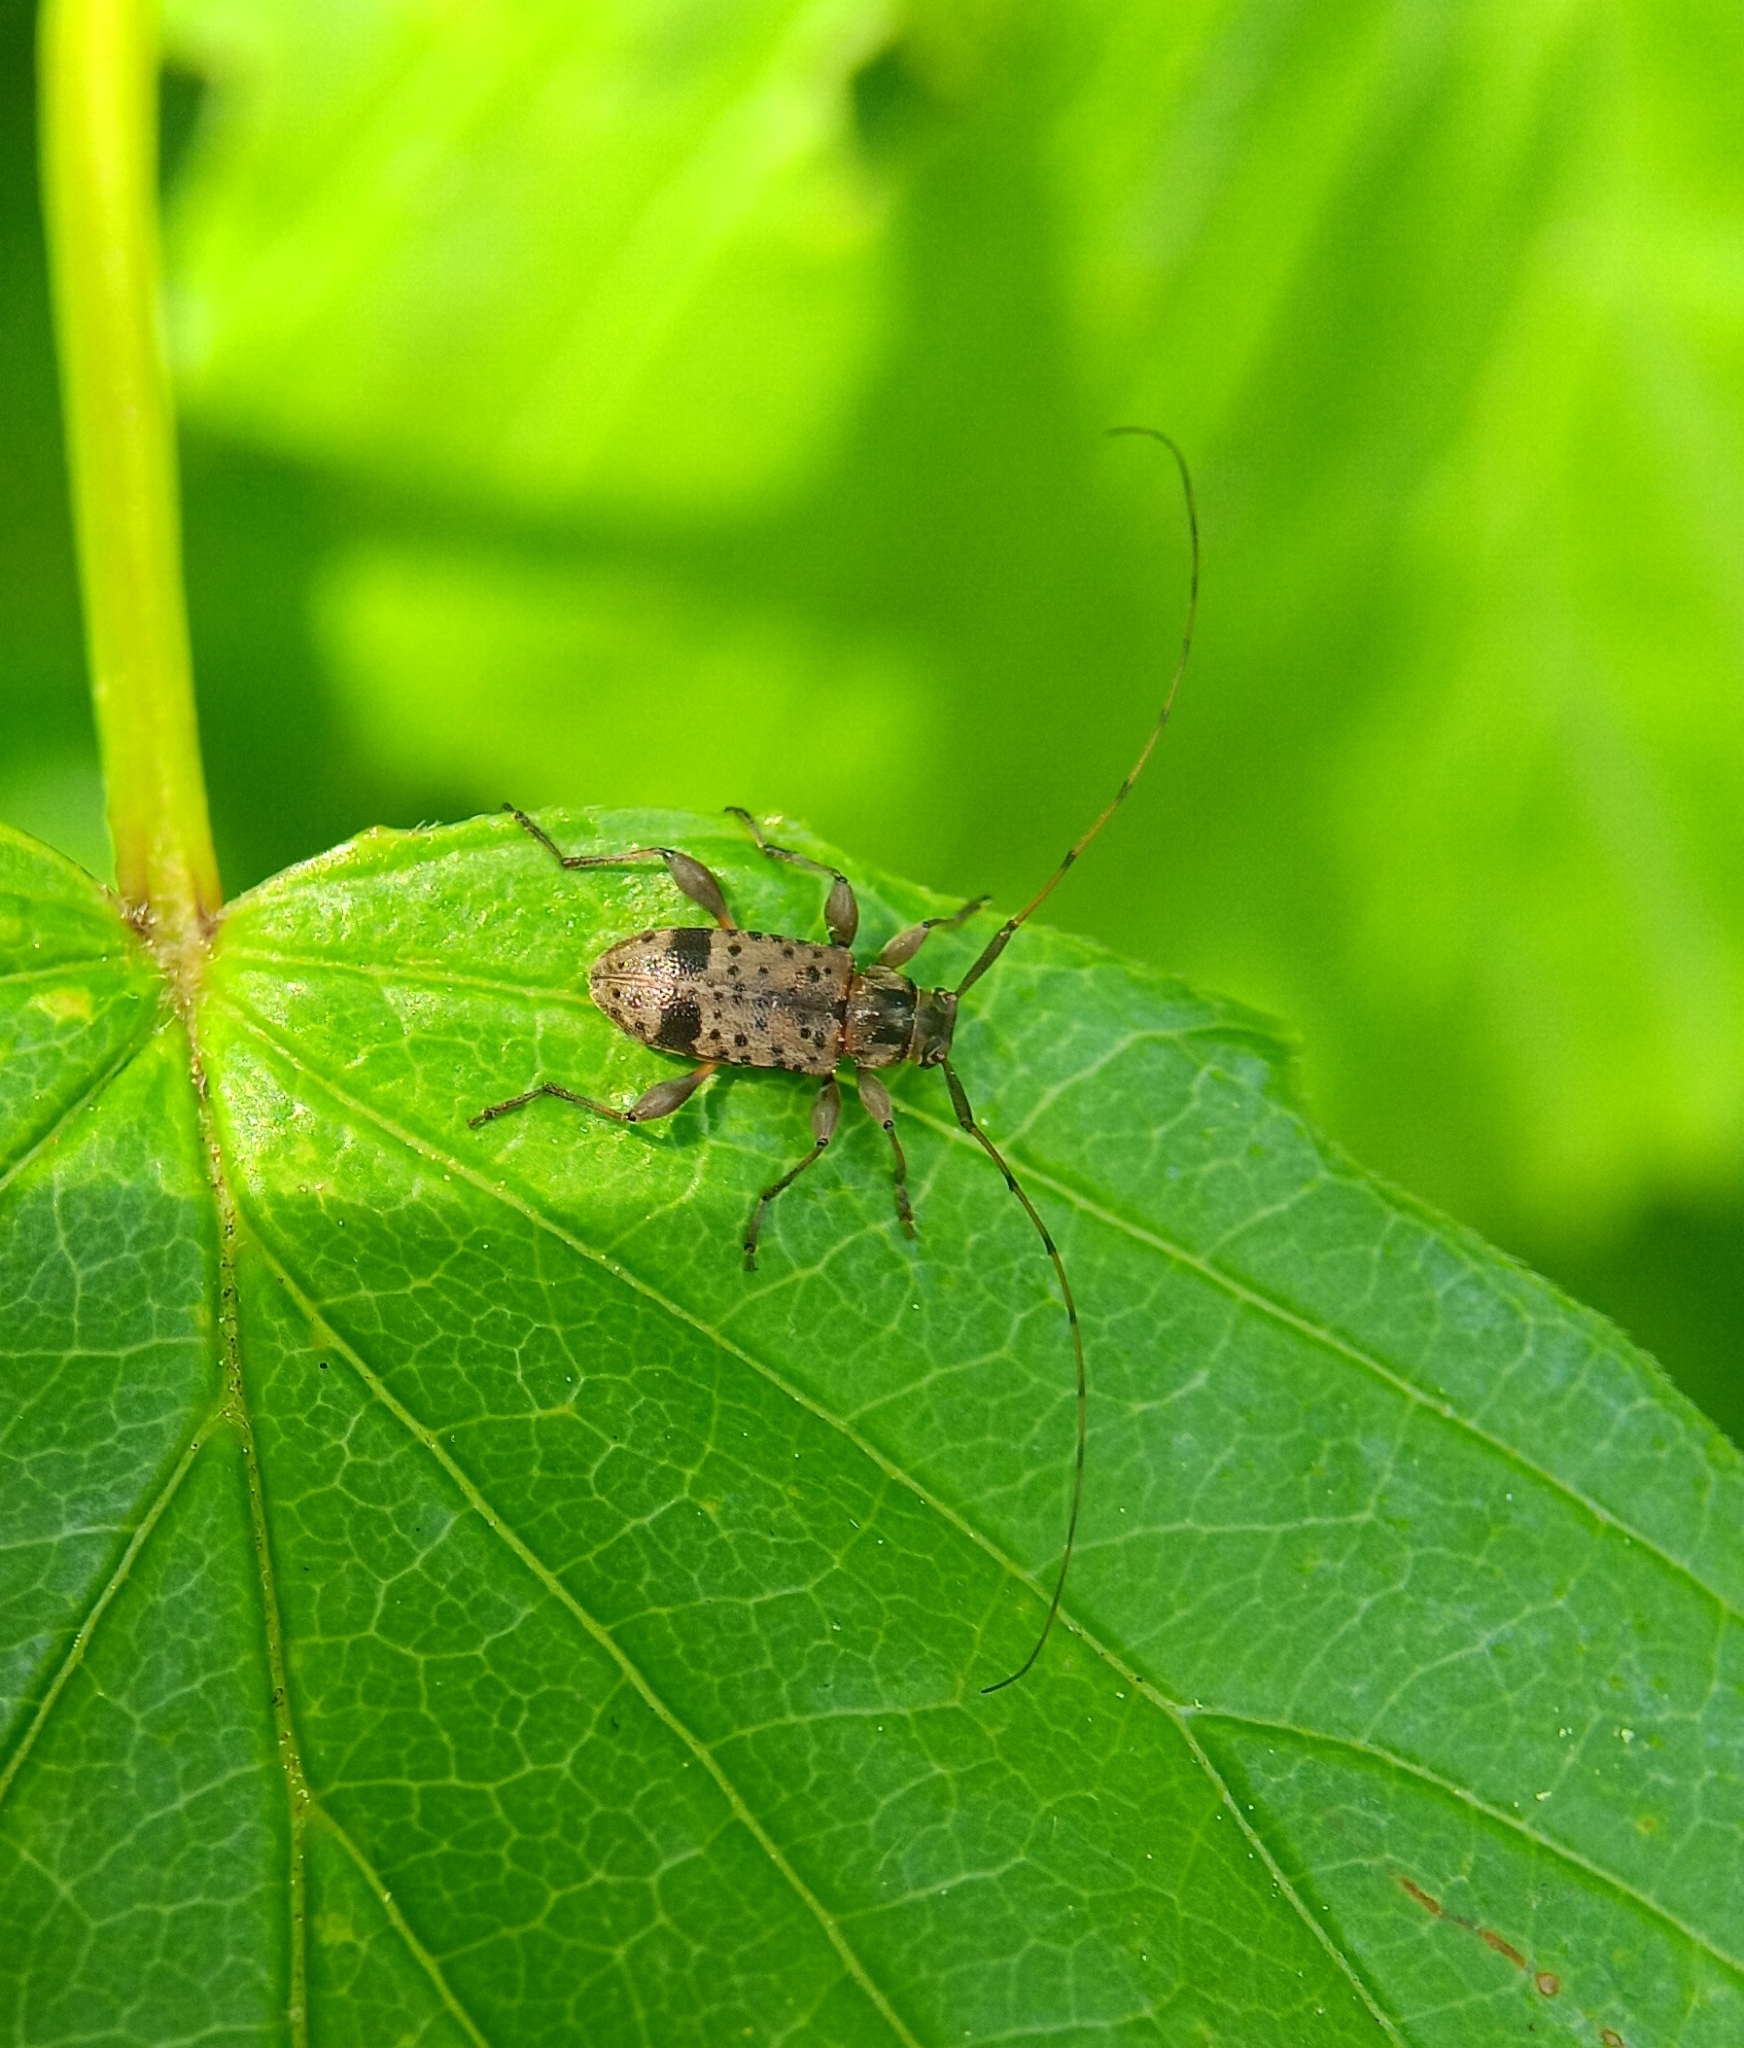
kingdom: Animalia
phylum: Arthropoda
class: Insecta
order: Coleoptera
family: Cerambycidae
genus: Hyperplatys
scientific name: Hyperplatys maculata
